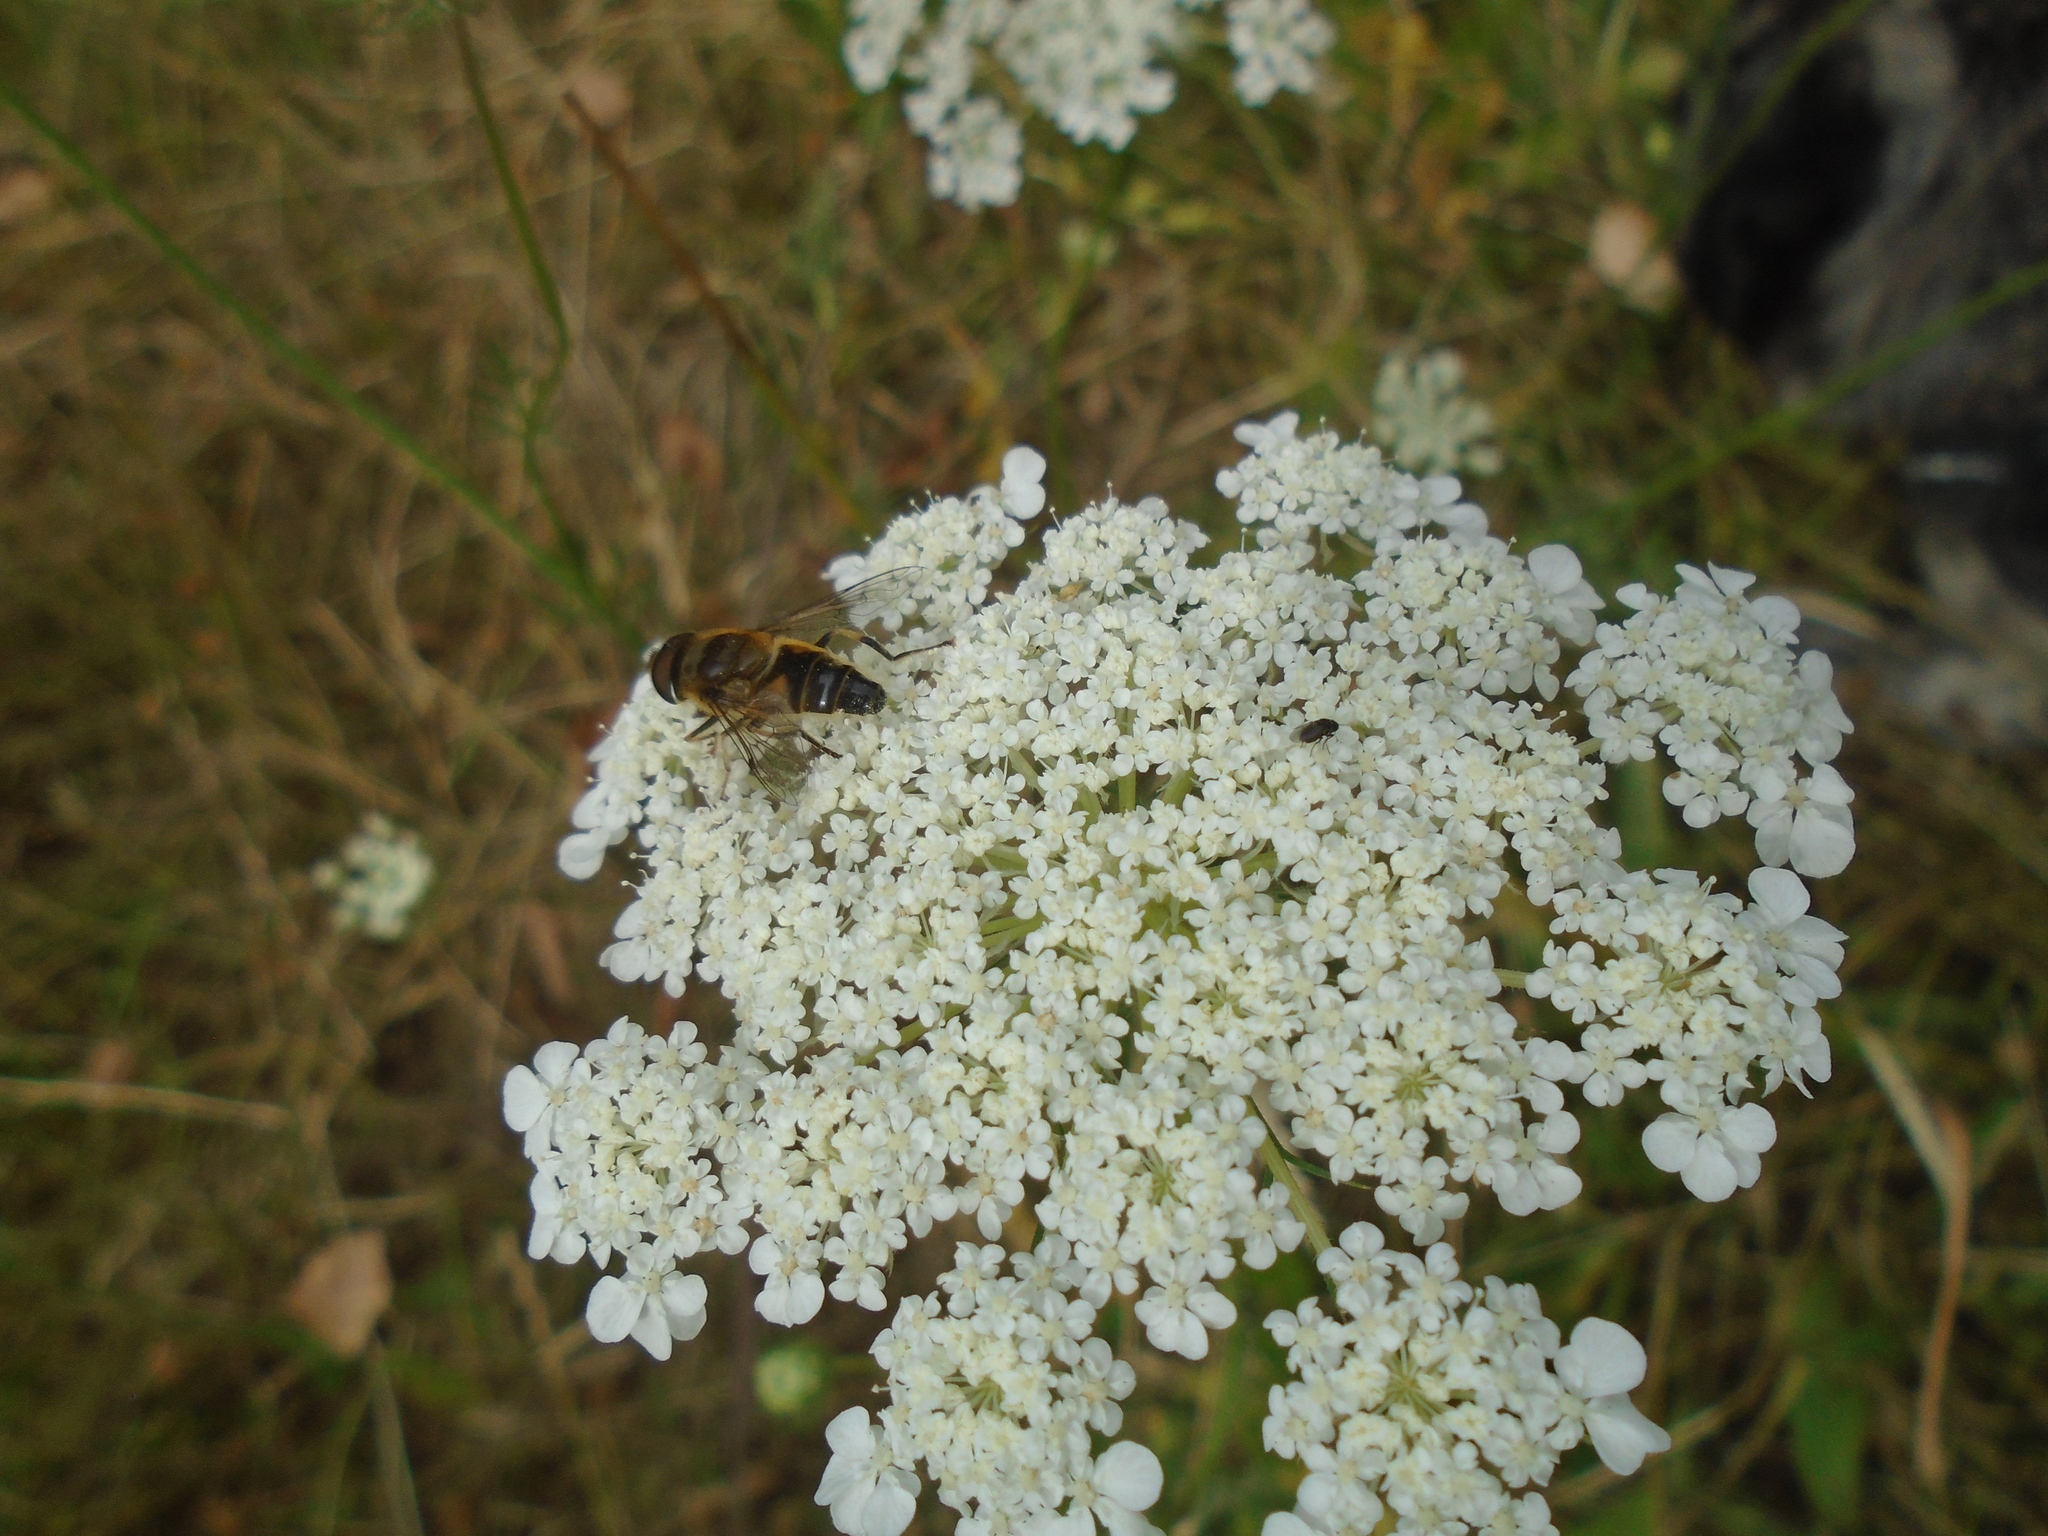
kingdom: Animalia
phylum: Arthropoda
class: Insecta
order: Diptera
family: Syrphidae
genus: Eristalis
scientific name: Eristalis pertinax
